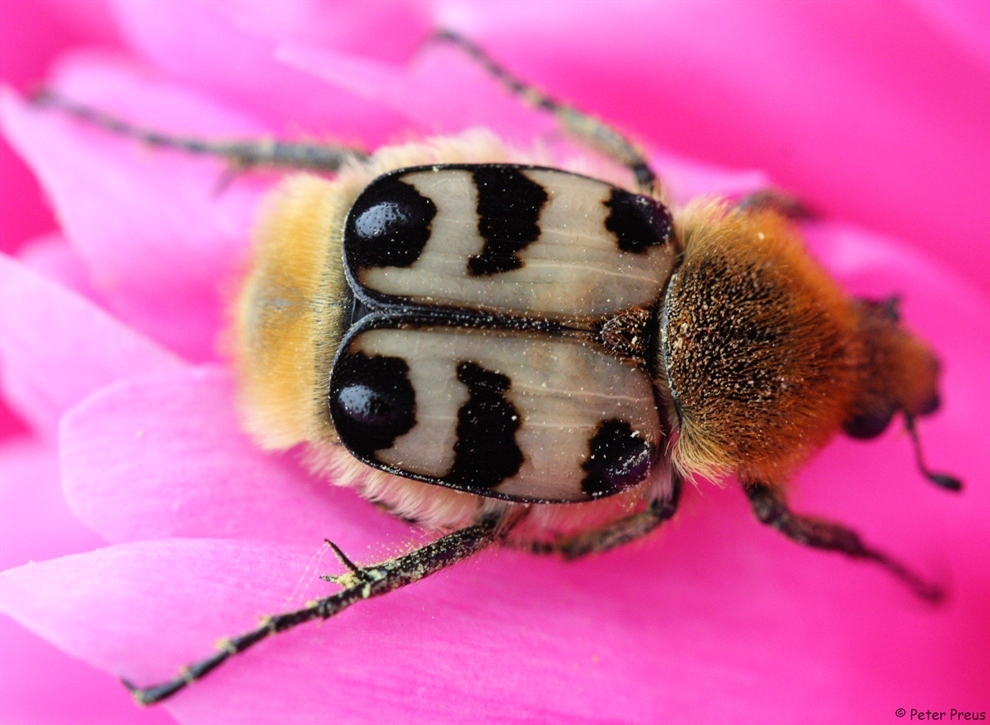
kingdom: Animalia
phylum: Arthropoda
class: Insecta
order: Coleoptera
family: Scarabaeidae
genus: Trichius
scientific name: Trichius gallicus
